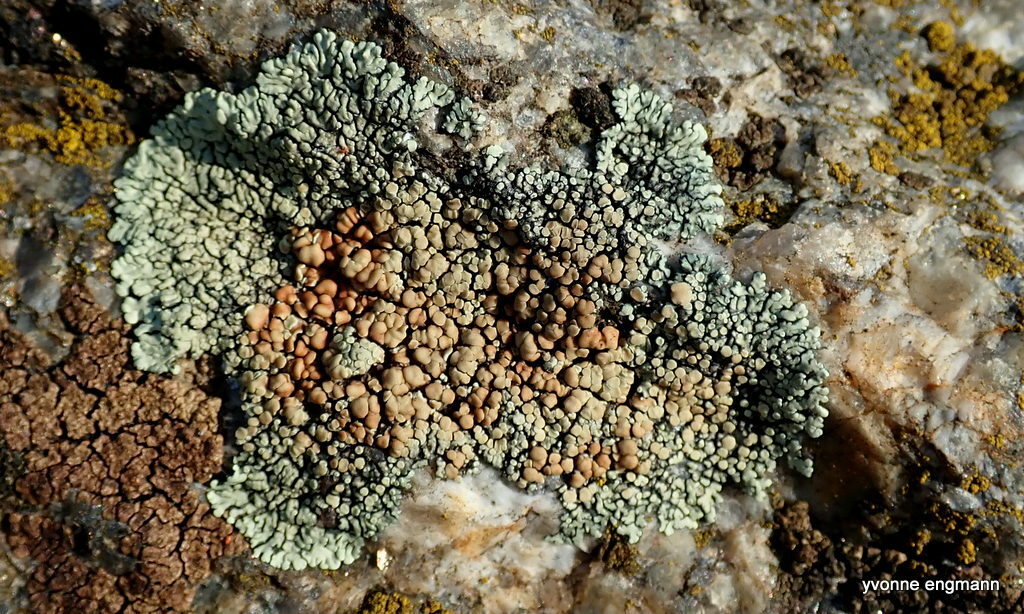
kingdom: Fungi
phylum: Ascomycota
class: Lecanoromycetes
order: Lecanorales
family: Lecanoraceae
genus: Protoparmeliopsis
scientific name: Protoparmeliopsis muralis
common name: Stonewall rim lichen
